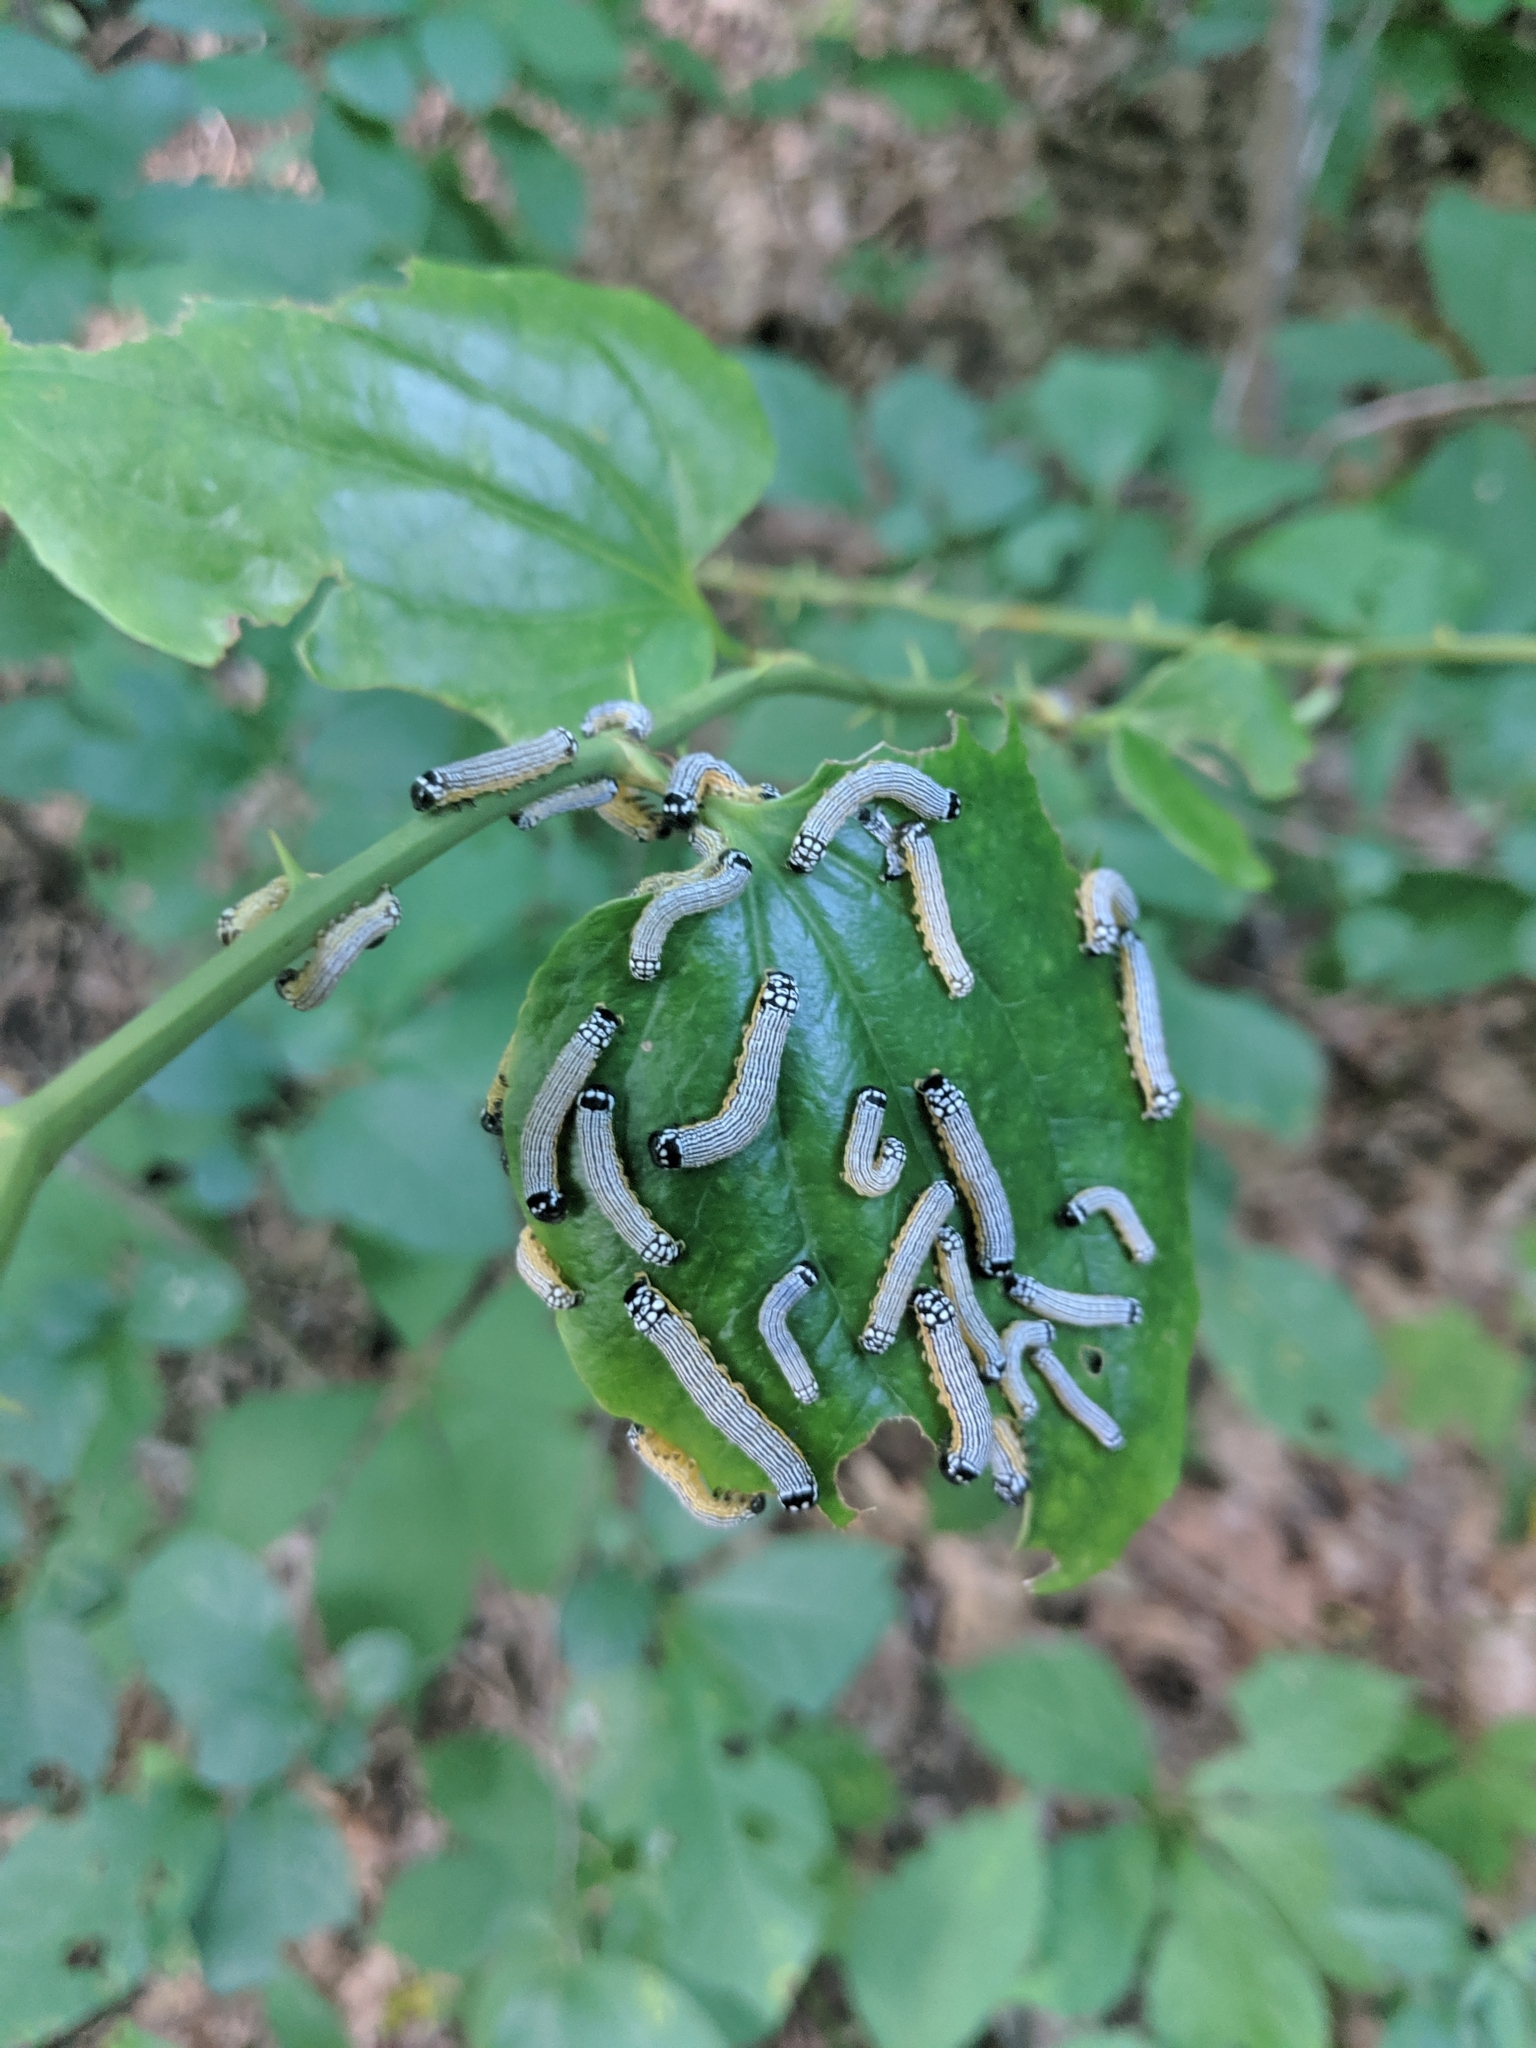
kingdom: Animalia
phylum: Arthropoda
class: Insecta
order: Lepidoptera
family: Noctuidae
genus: Phosphila
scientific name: Phosphila turbulenta
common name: Turbulent phosphila moth
